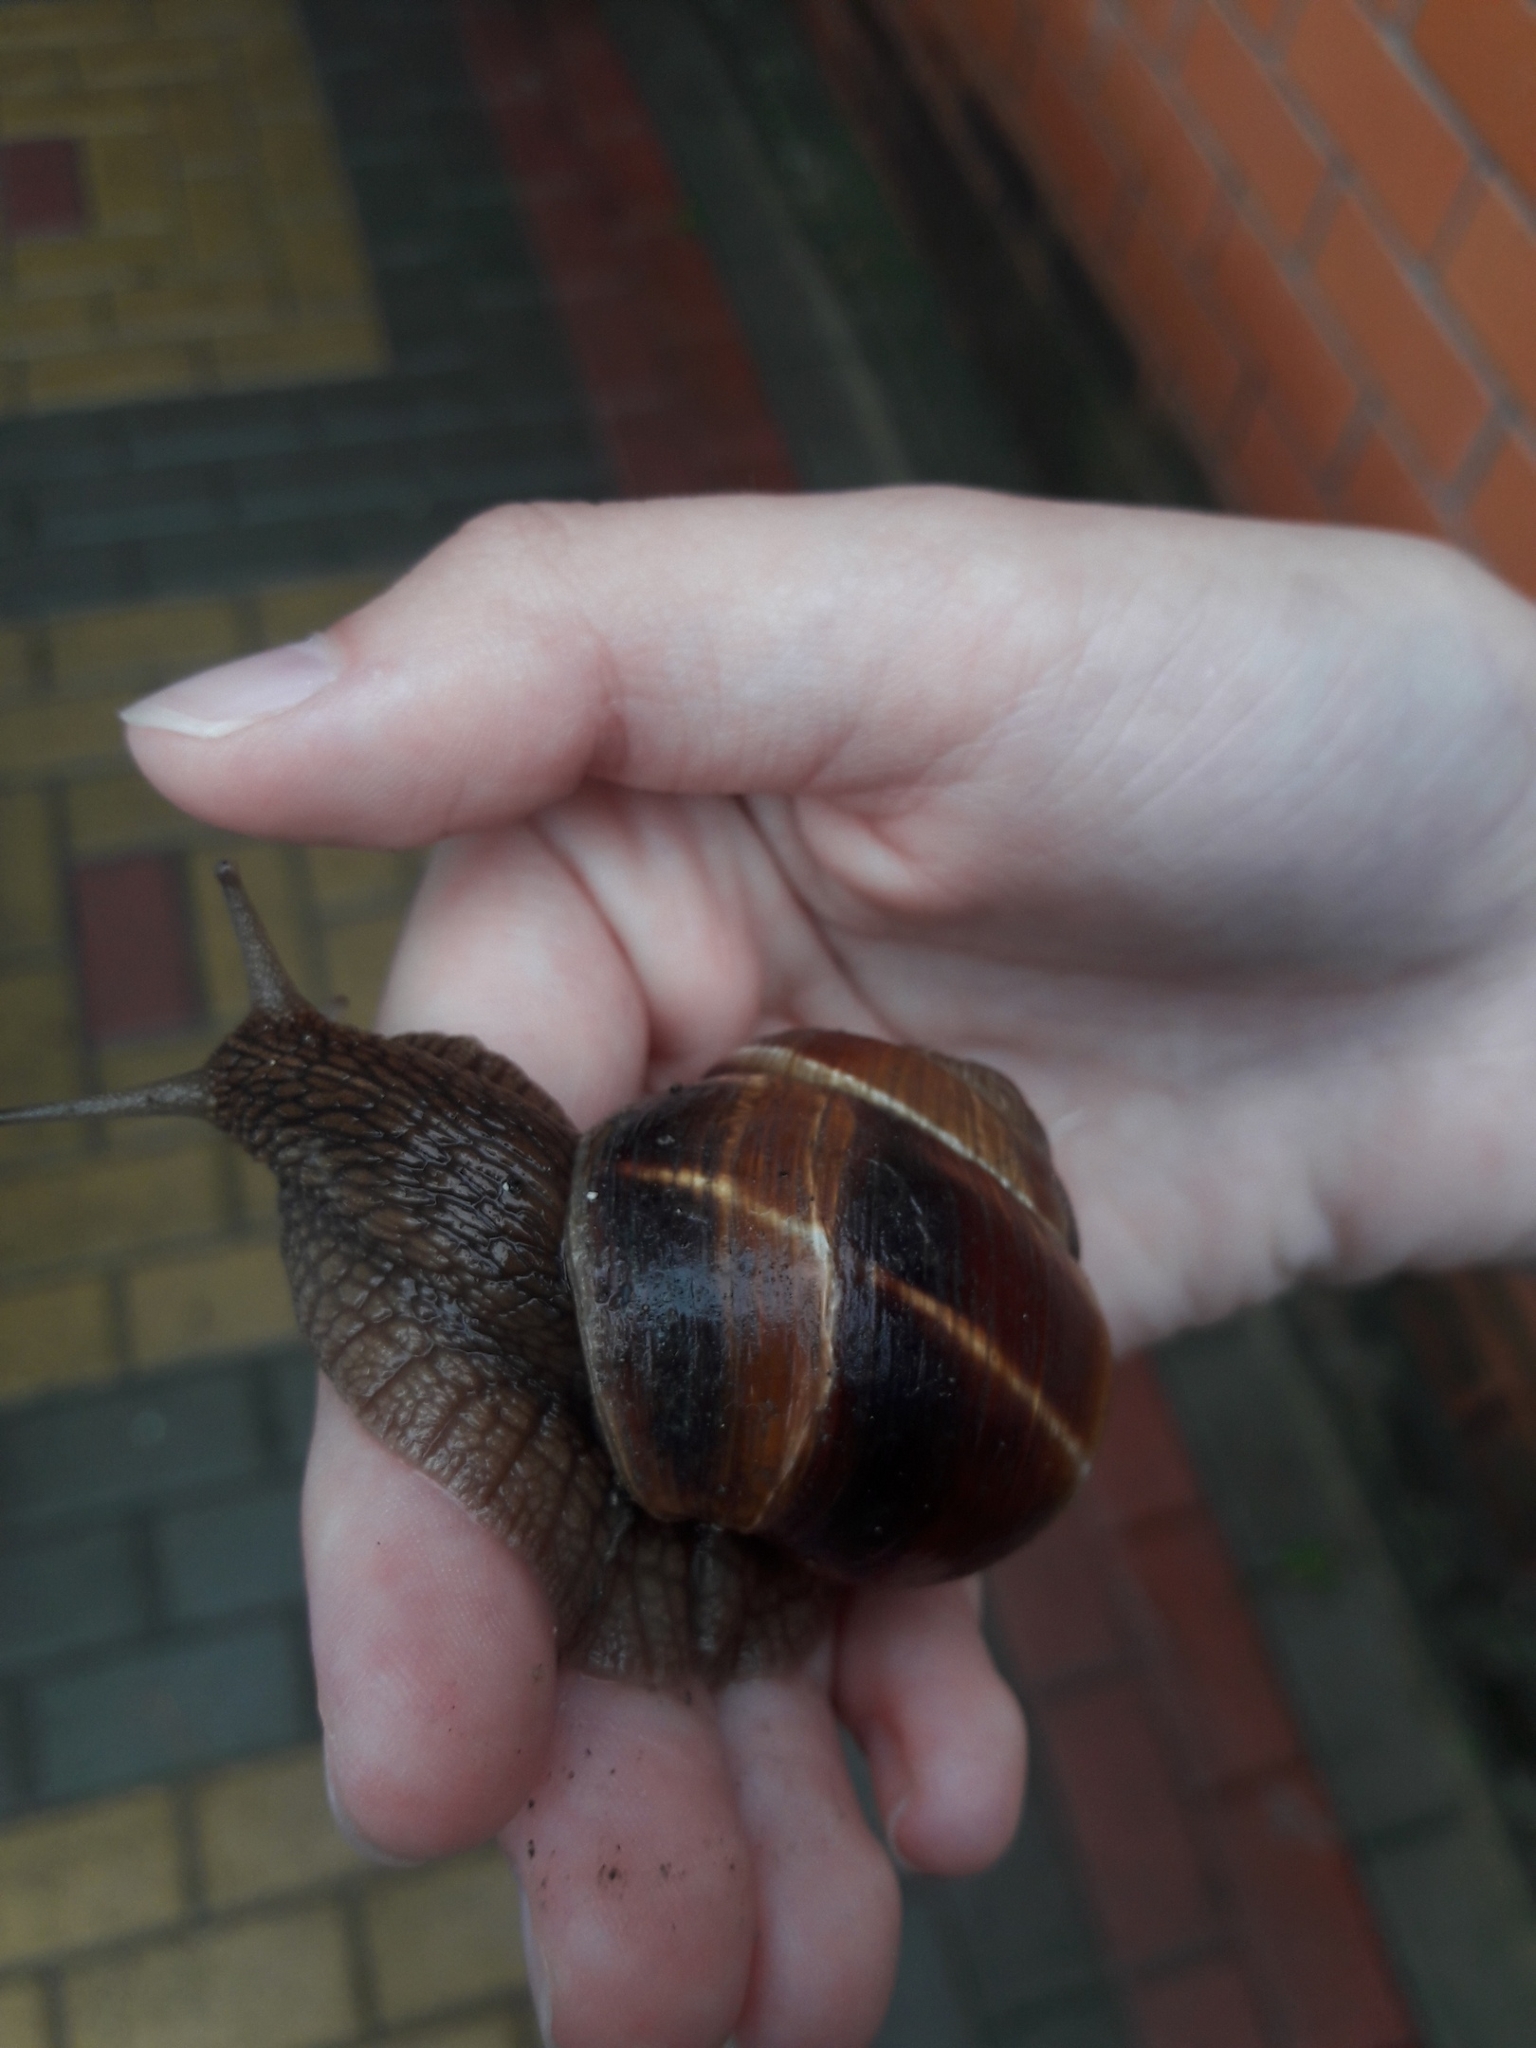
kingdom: Animalia
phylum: Mollusca
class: Gastropoda
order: Stylommatophora
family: Helicidae
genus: Helix
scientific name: Helix lucorum
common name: Turkish snail
